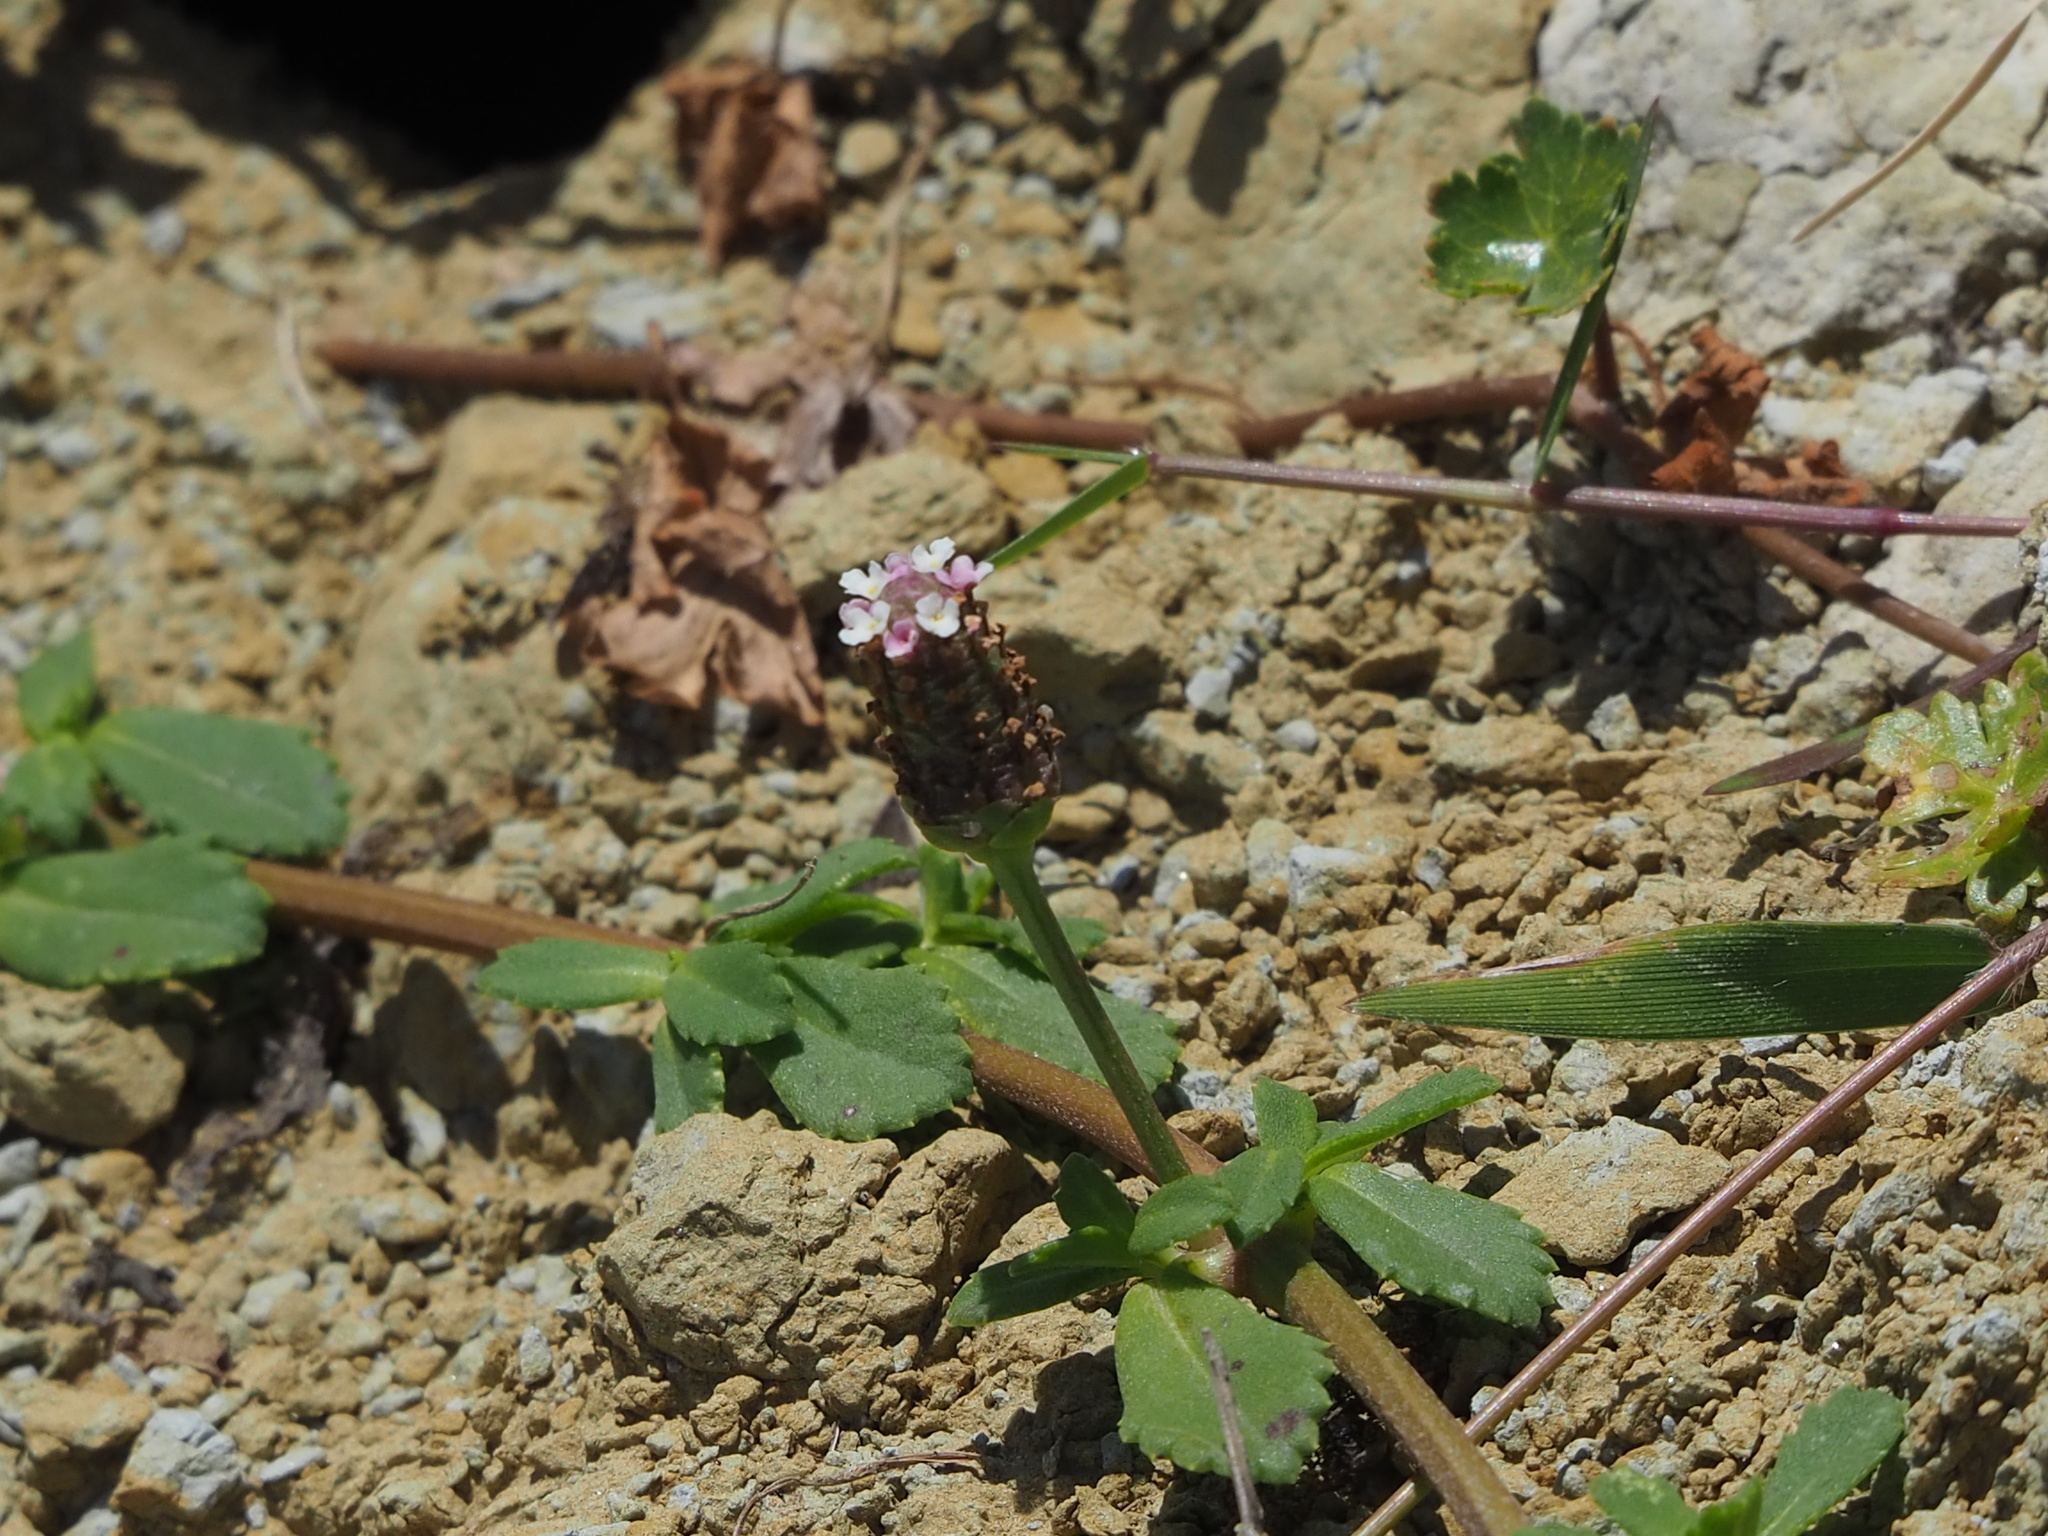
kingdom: Plantae
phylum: Tracheophyta
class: Magnoliopsida
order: Lamiales
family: Verbenaceae
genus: Phyla
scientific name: Phyla nodiflora
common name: Frogfruit
